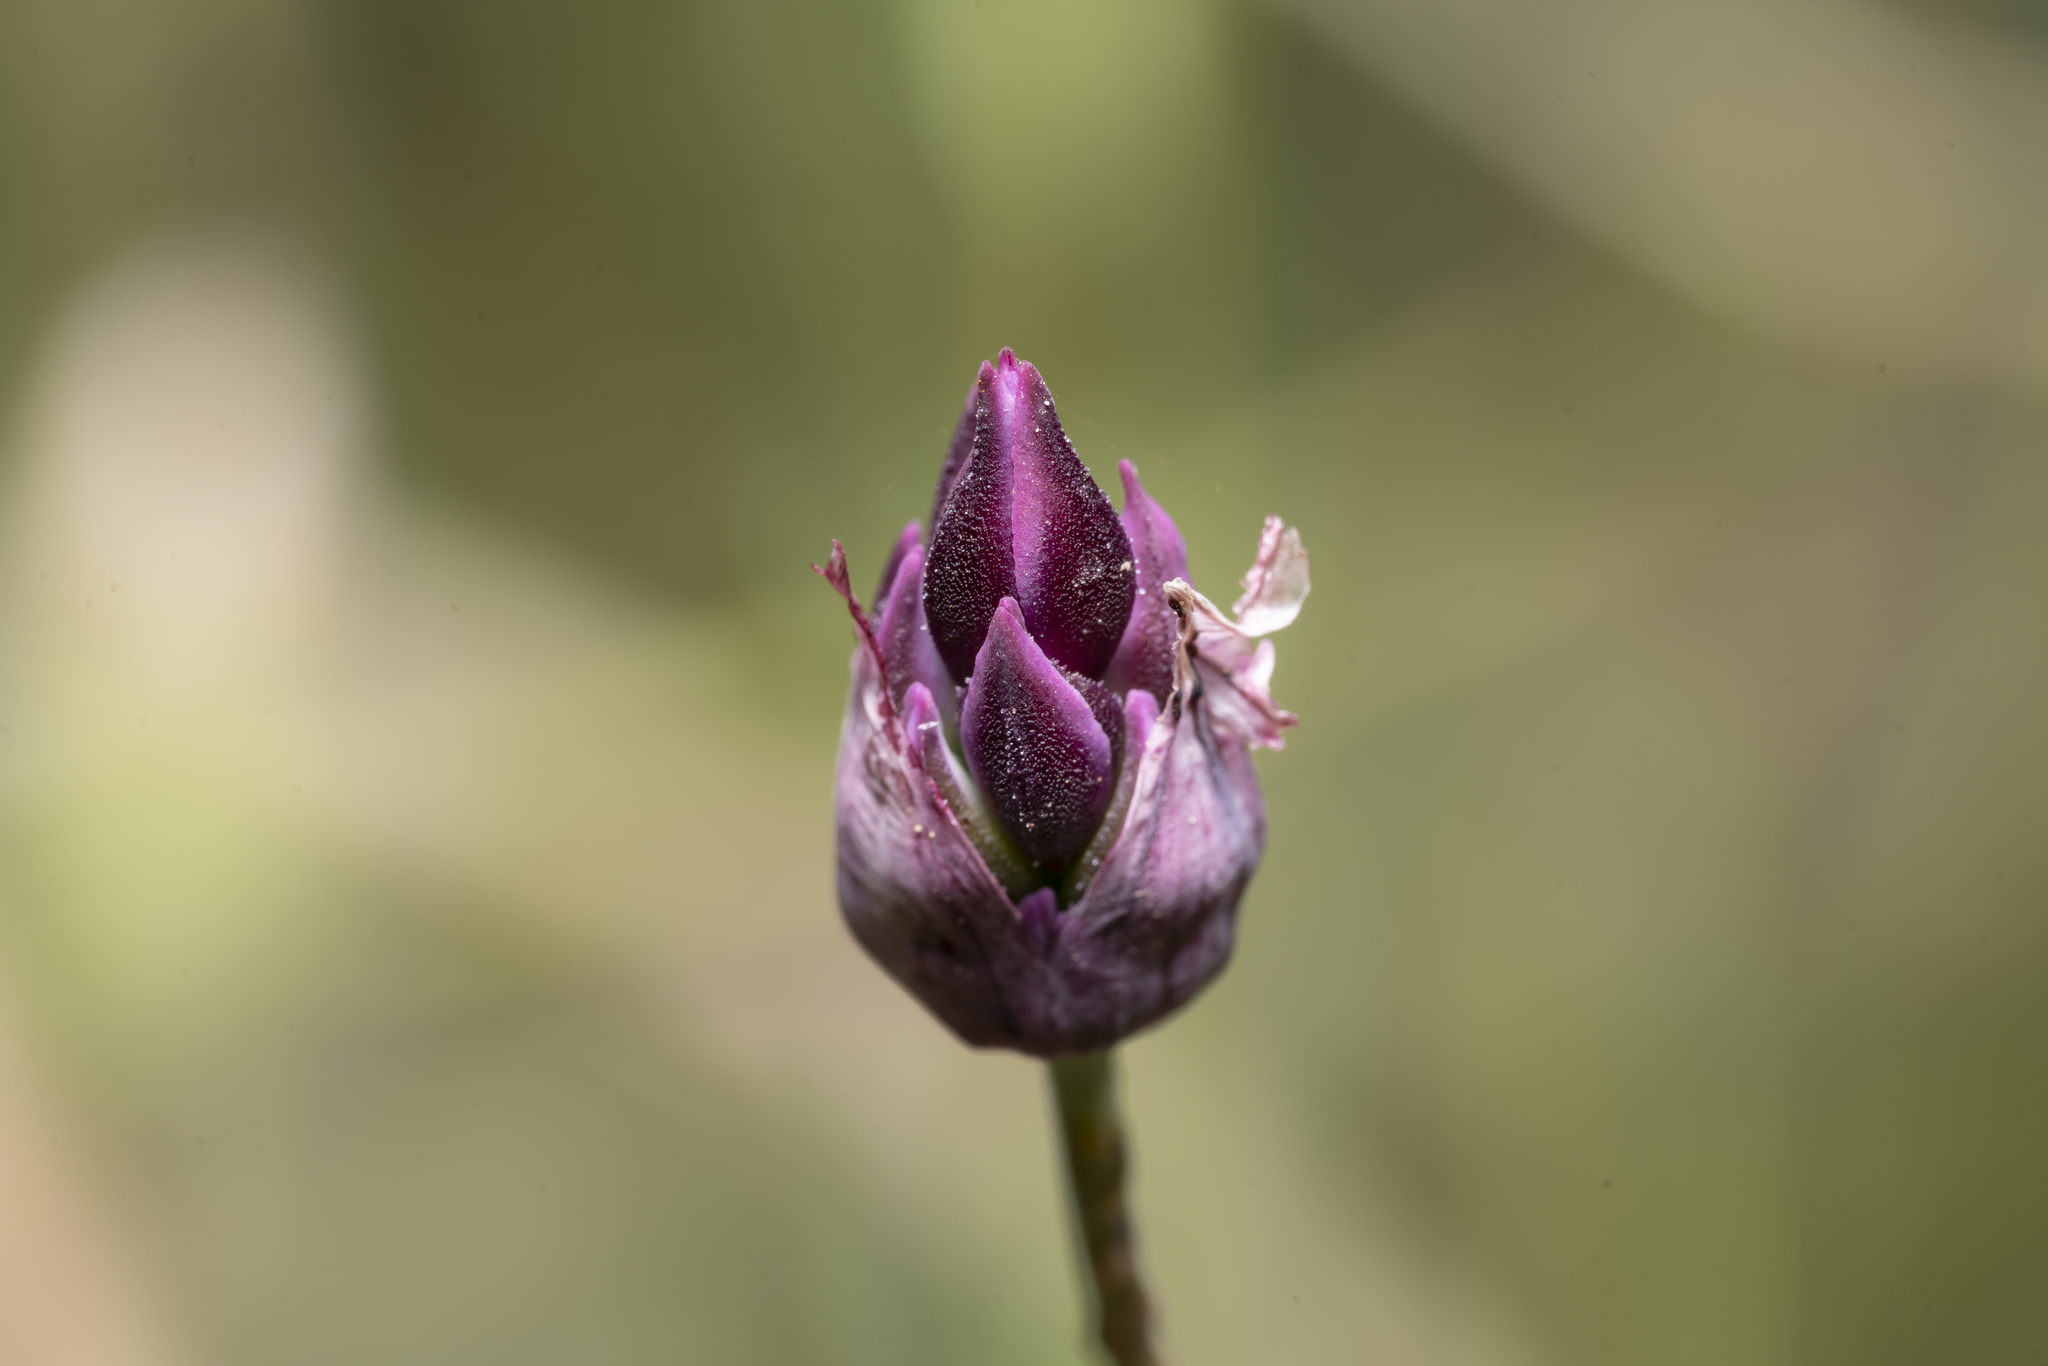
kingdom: Plantae
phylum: Tracheophyta
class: Liliopsida
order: Asparagales
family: Amaryllidaceae
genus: Allium
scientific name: Allium junceum
